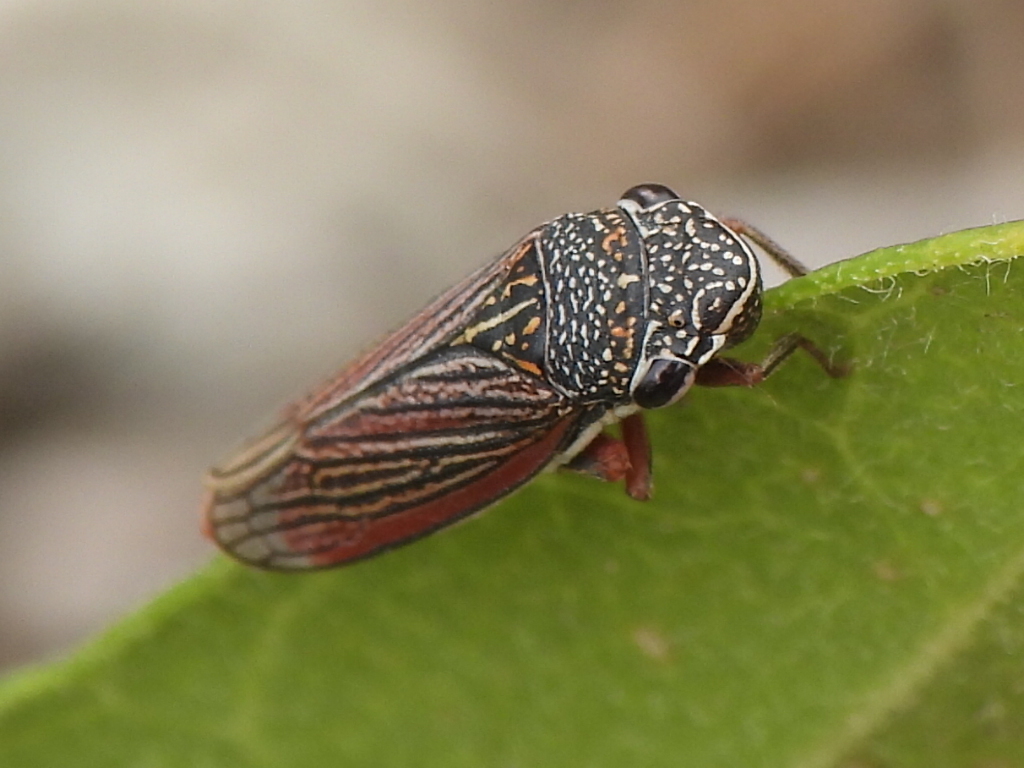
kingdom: Animalia
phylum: Arthropoda
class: Insecta
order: Hemiptera
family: Cicadellidae
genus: Cuerna
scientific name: Cuerna costalis
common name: Lateral-lined sharpshooter
